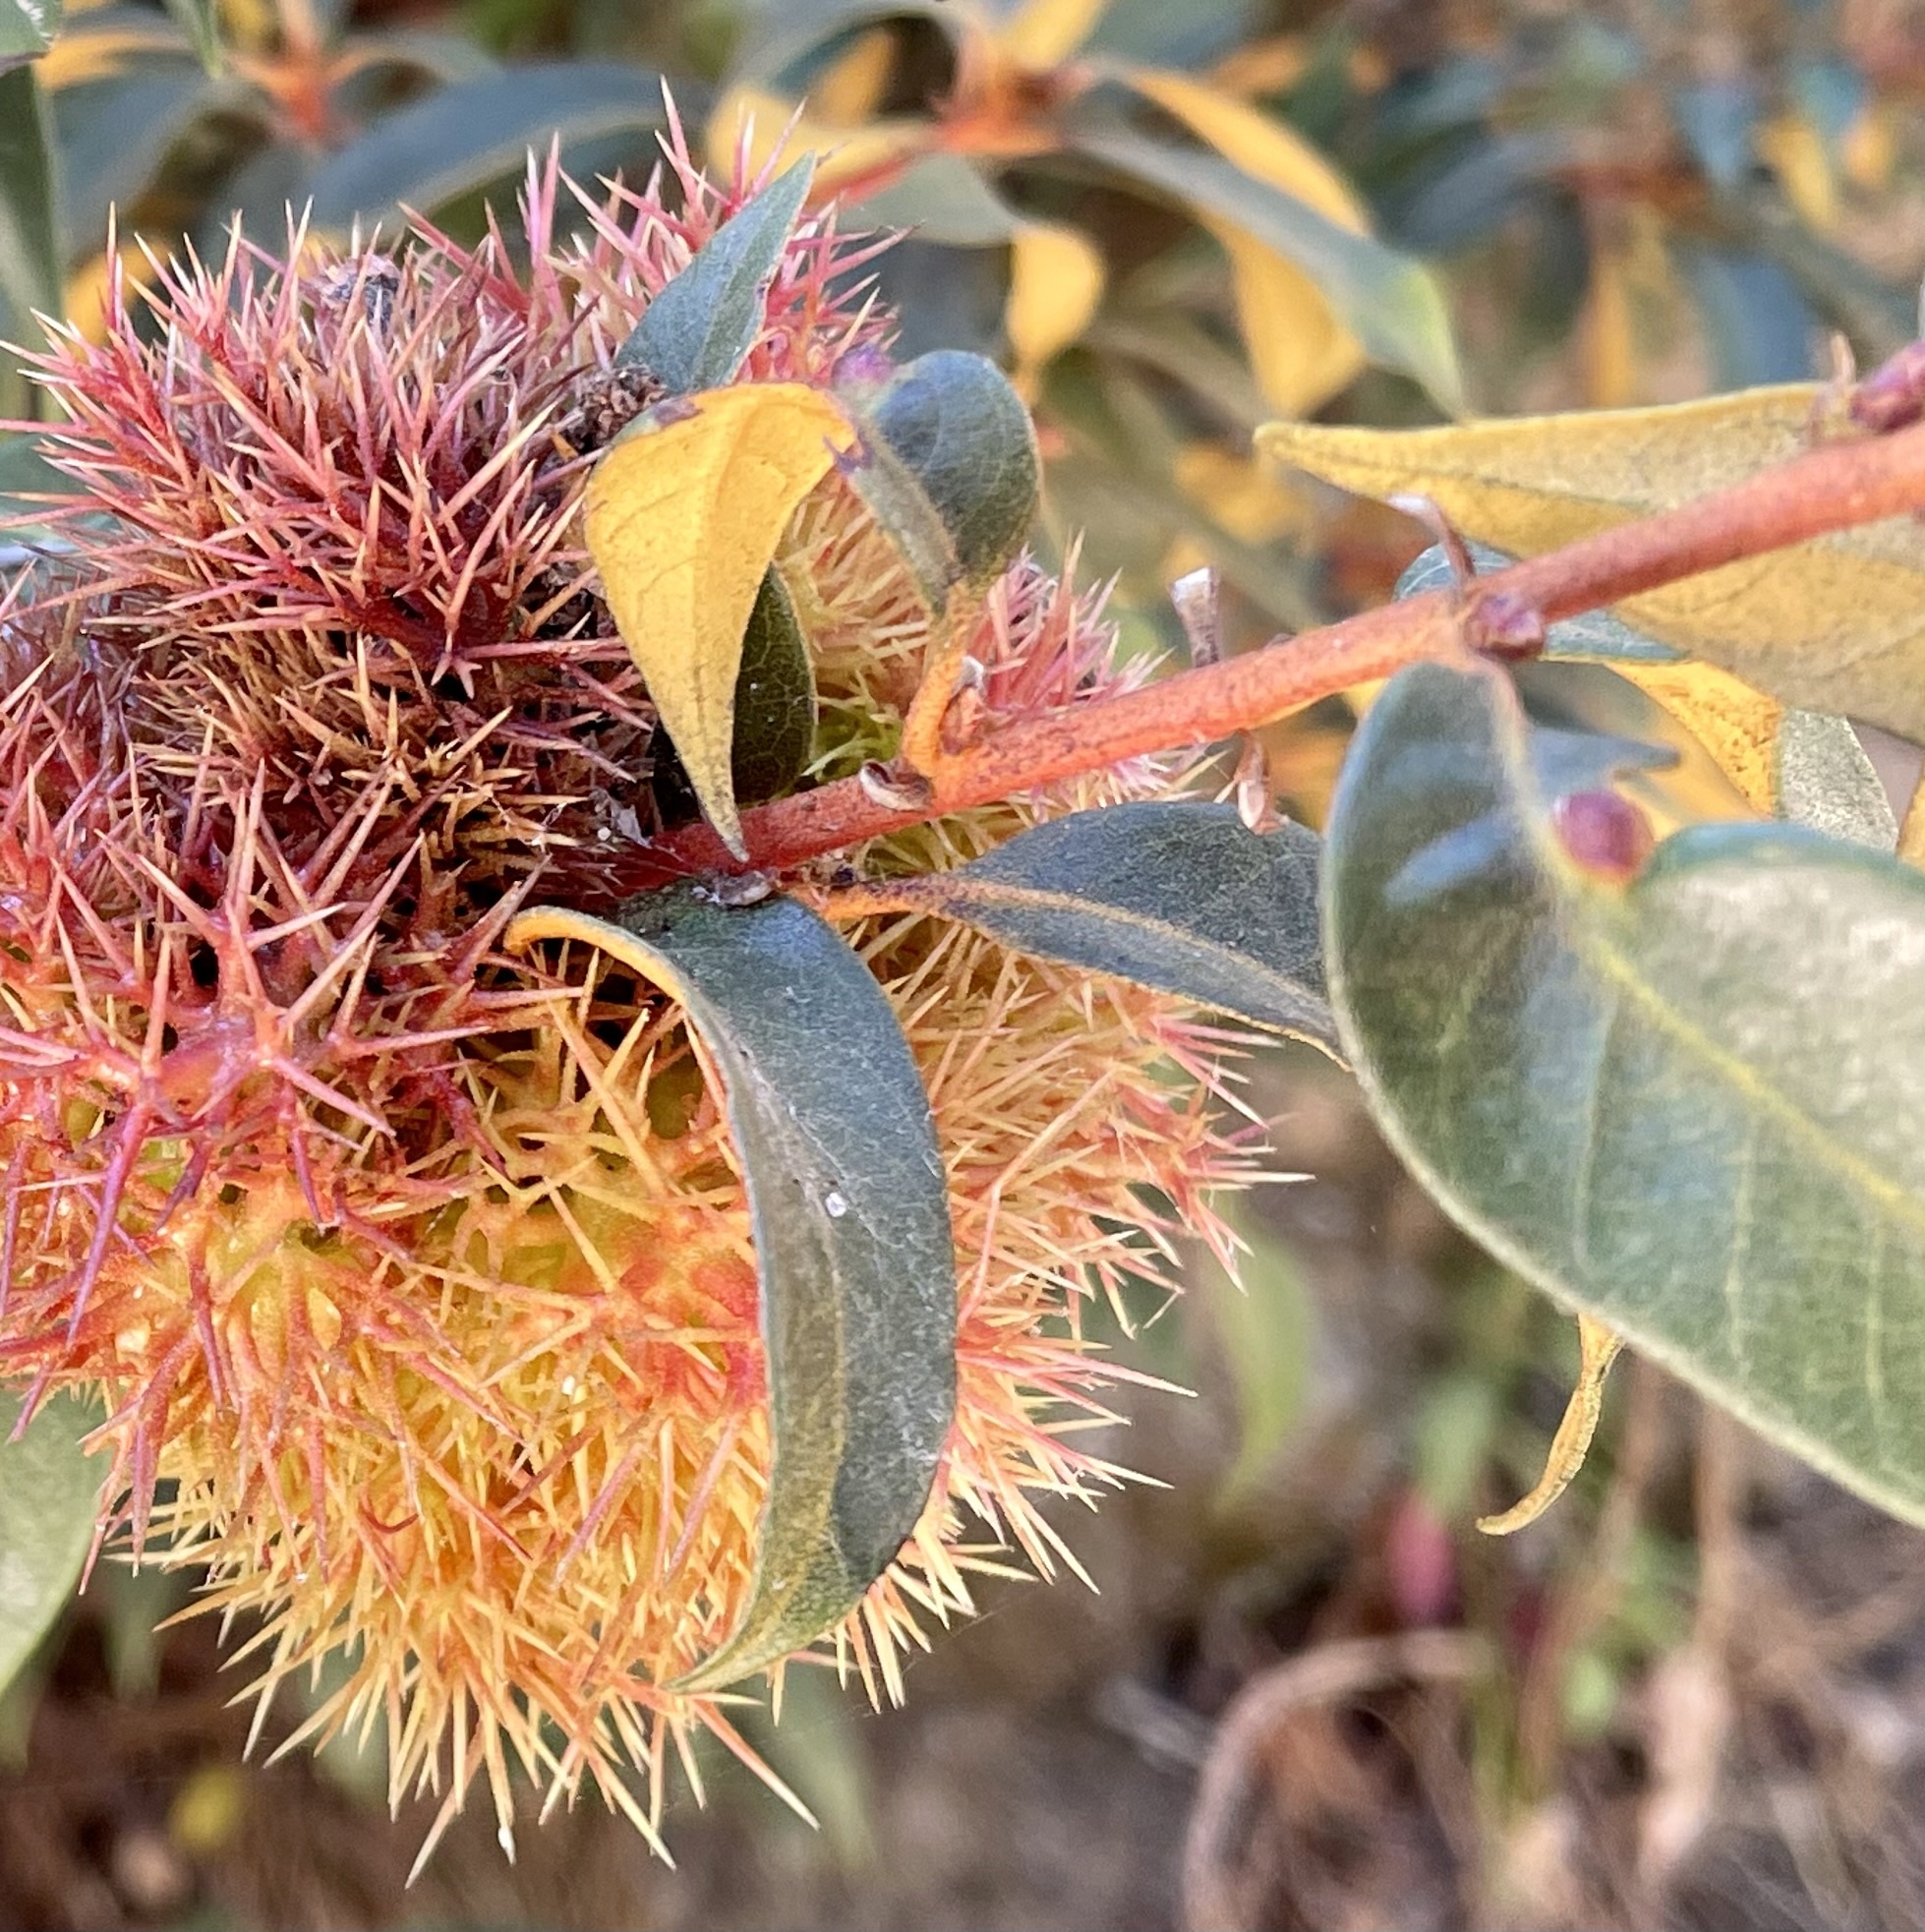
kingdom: Animalia
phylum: Arthropoda
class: Insecta
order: Hymenoptera
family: Cynipidae
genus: Dryocosmus
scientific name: Dryocosmus juliae
